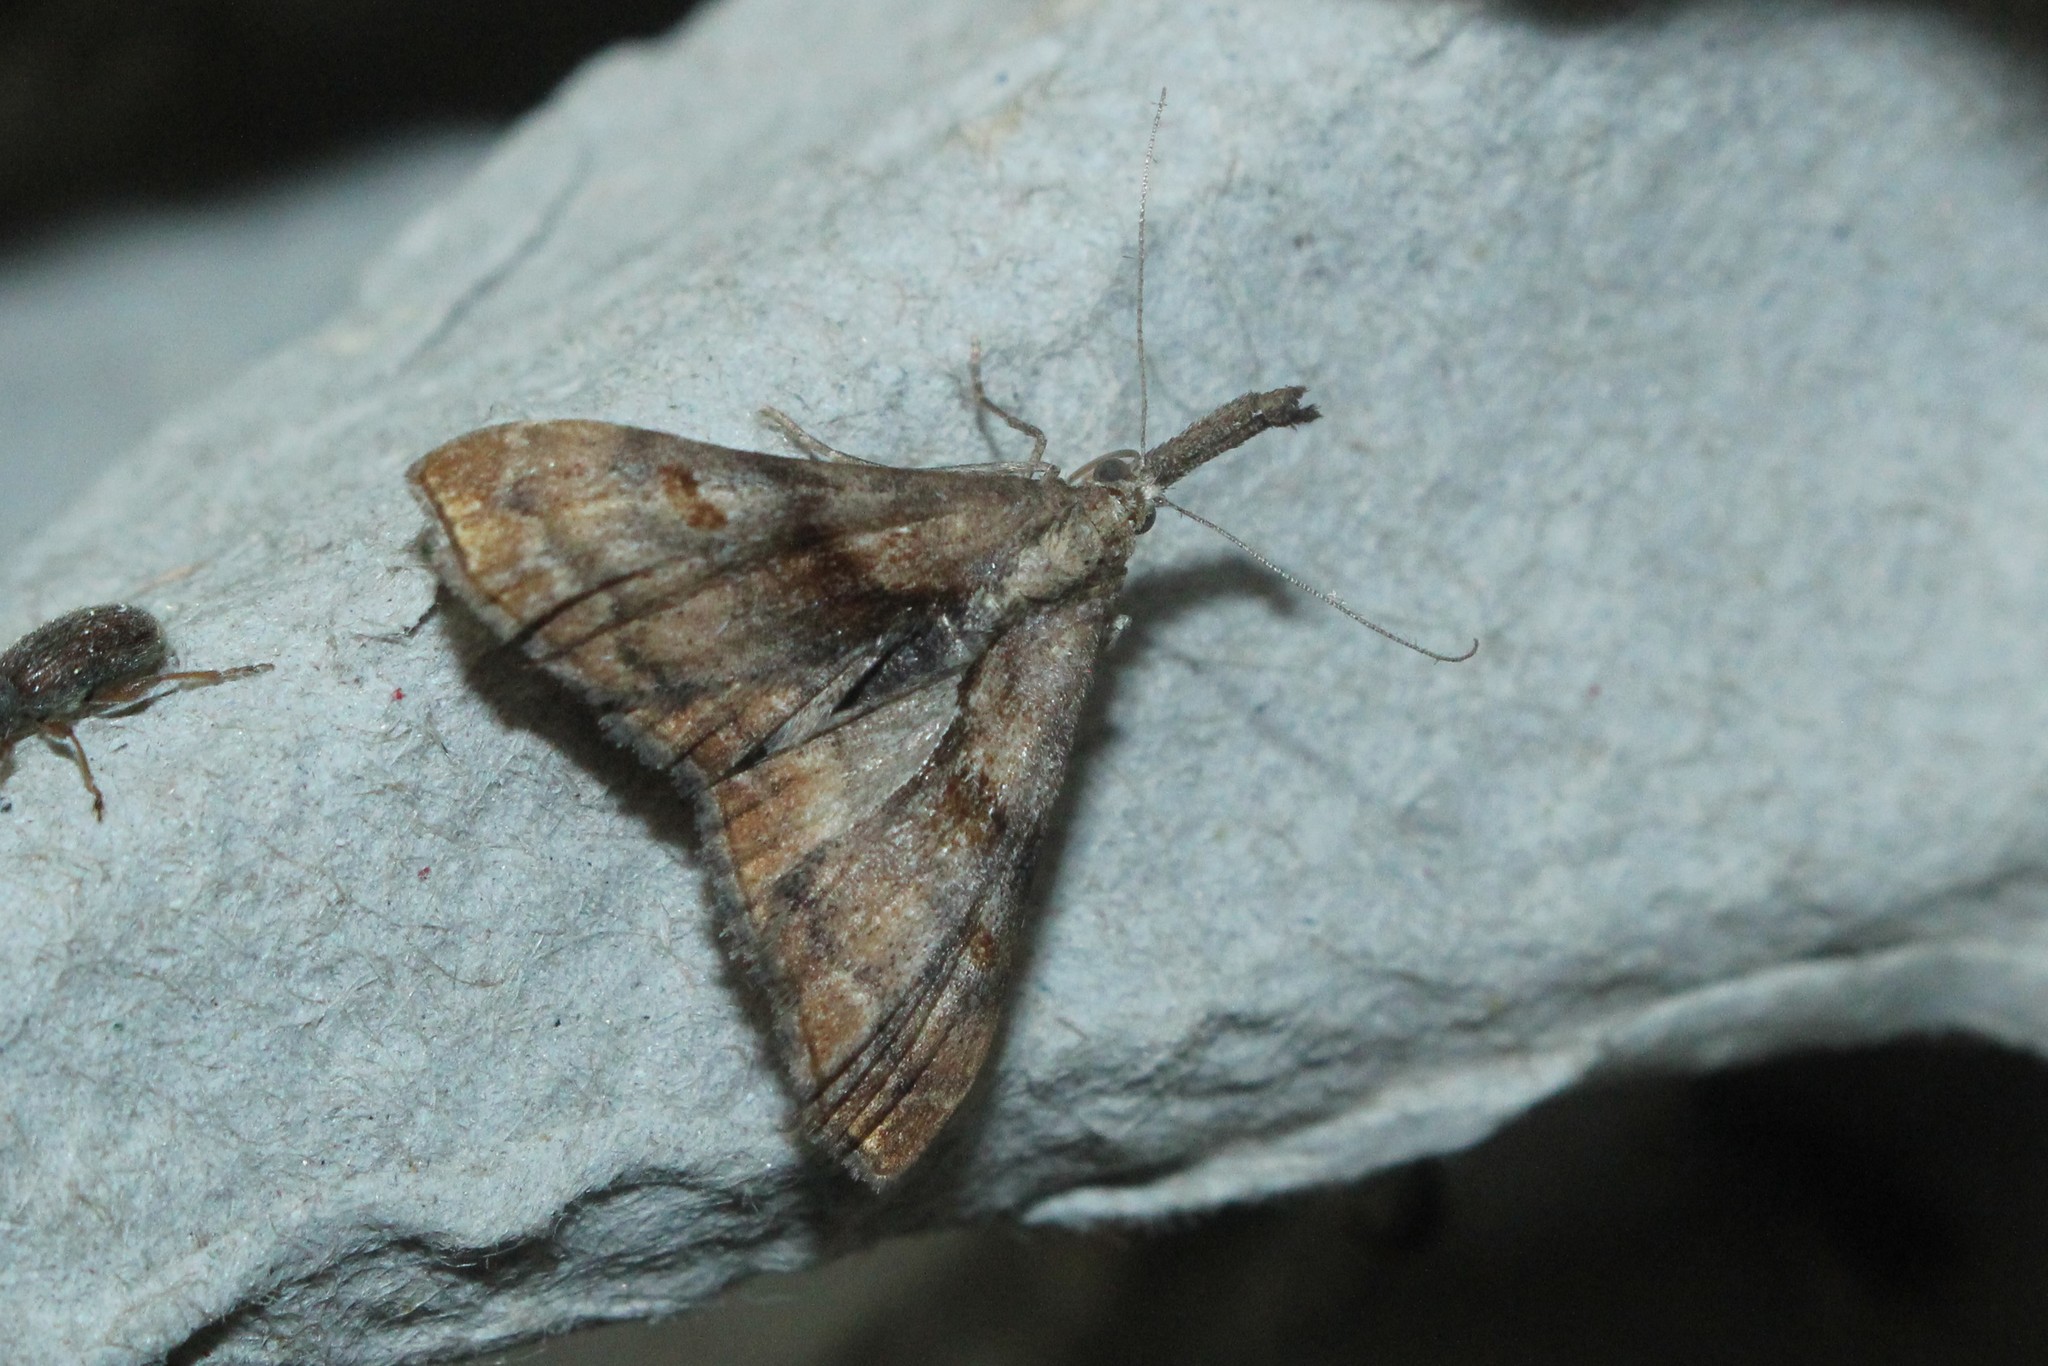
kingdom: Animalia
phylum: Arthropoda
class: Insecta
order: Lepidoptera
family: Erebidae
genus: Palthis
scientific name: Palthis angulalis
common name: Dark-spotted palthis moth
